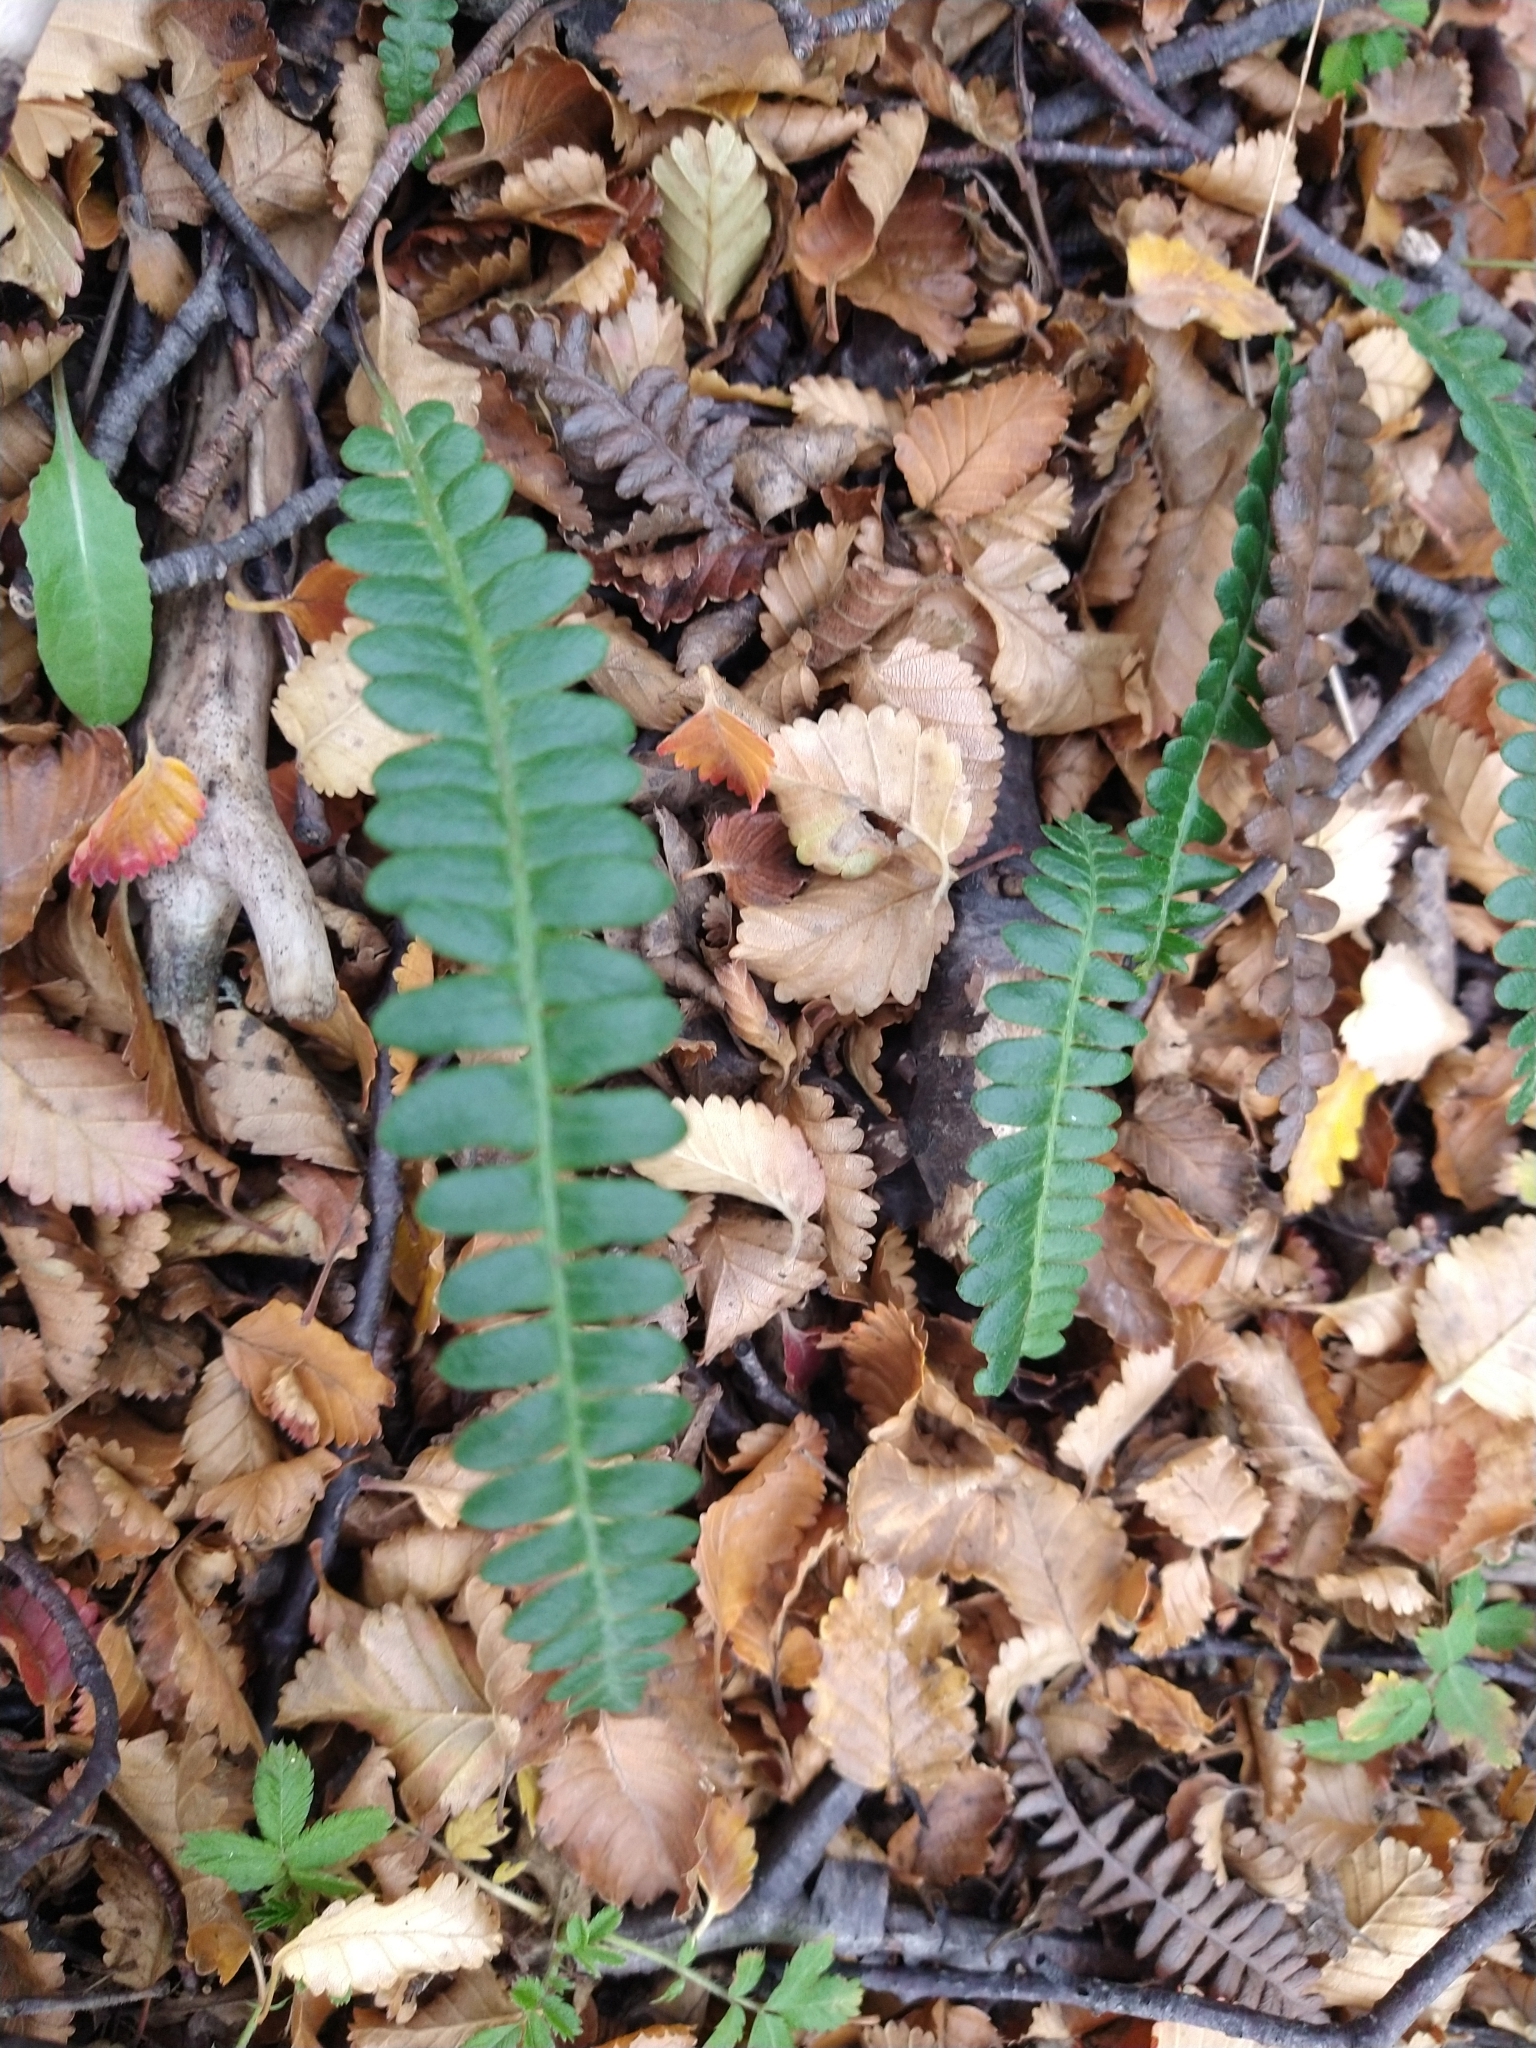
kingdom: Plantae
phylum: Tracheophyta
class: Polypodiopsida
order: Polypodiales
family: Blechnaceae
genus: Austroblechnum
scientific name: Austroblechnum penna-marina
